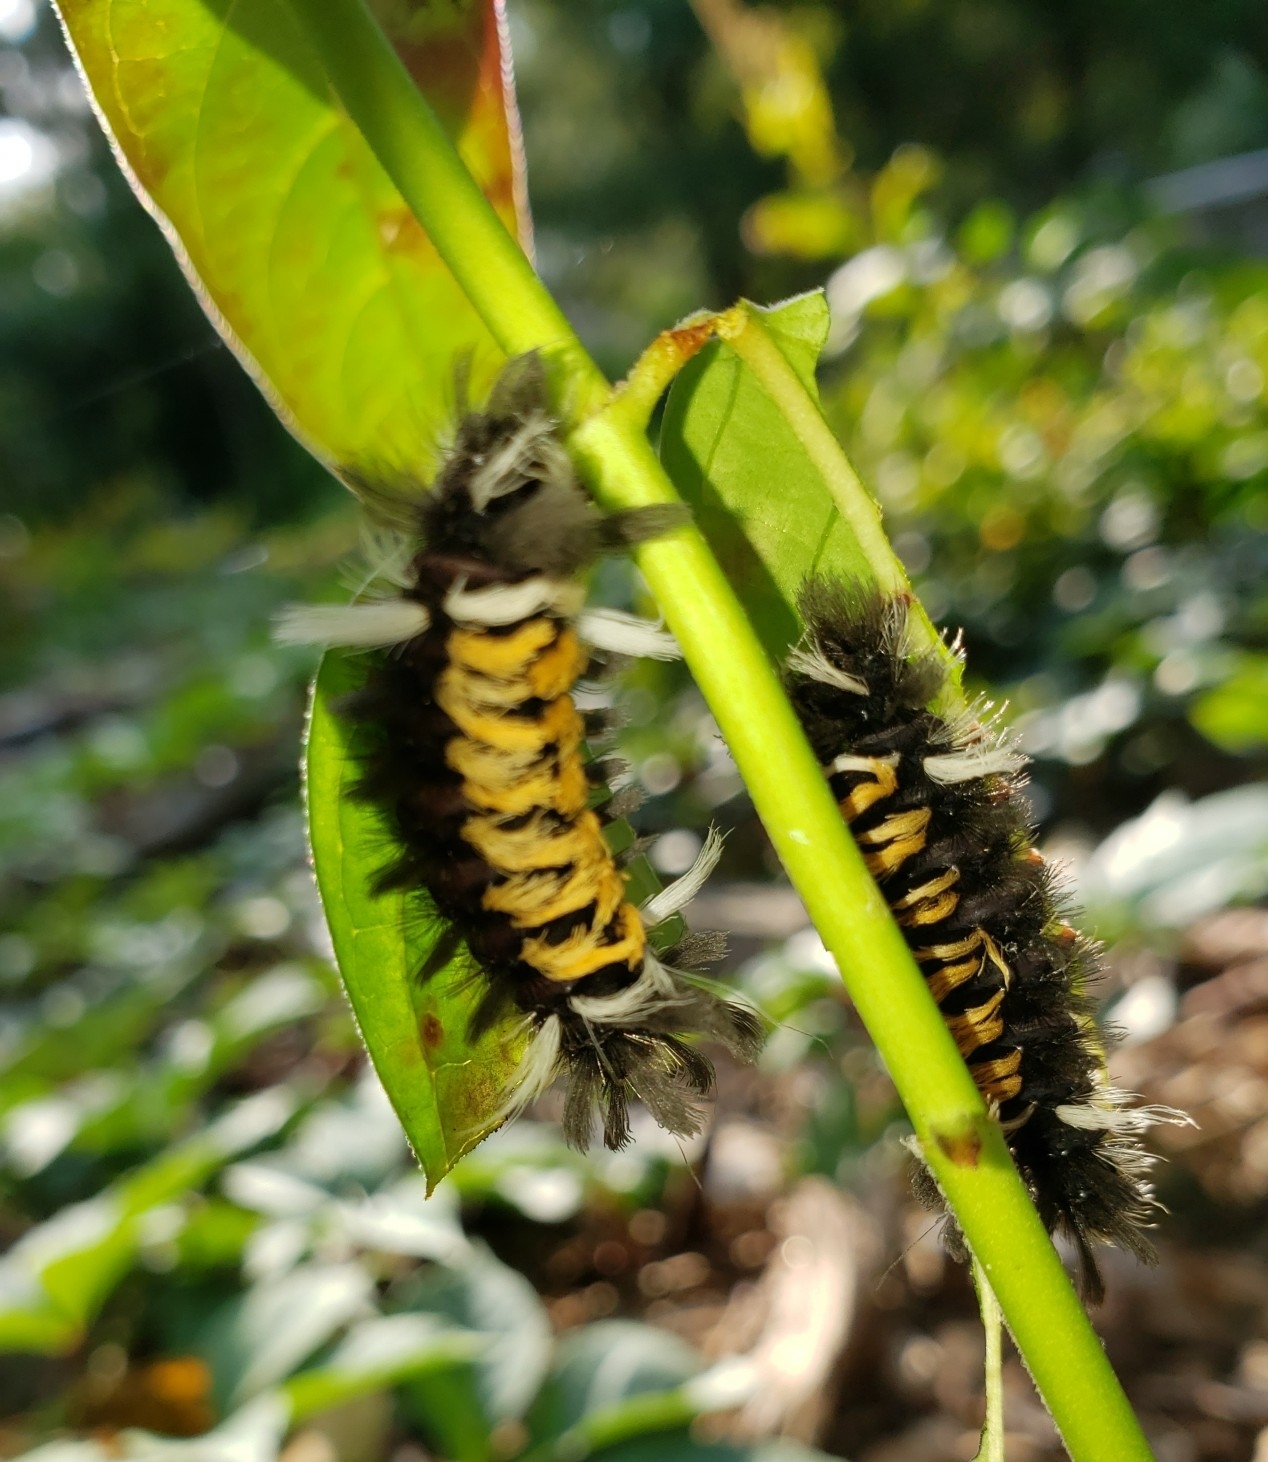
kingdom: Animalia
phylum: Arthropoda
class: Insecta
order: Lepidoptera
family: Erebidae
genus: Euchaetes
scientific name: Euchaetes egle
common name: Milkweed tussock moth
